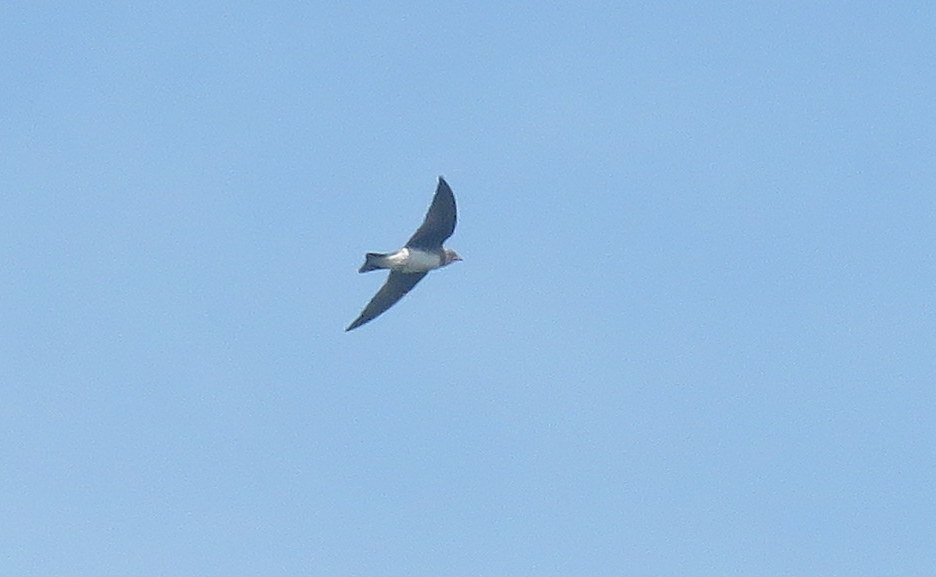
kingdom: Animalia
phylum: Chordata
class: Aves
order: Passeriformes
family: Hirundinidae
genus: Progne
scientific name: Progne tapera
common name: Brown-chested martin
